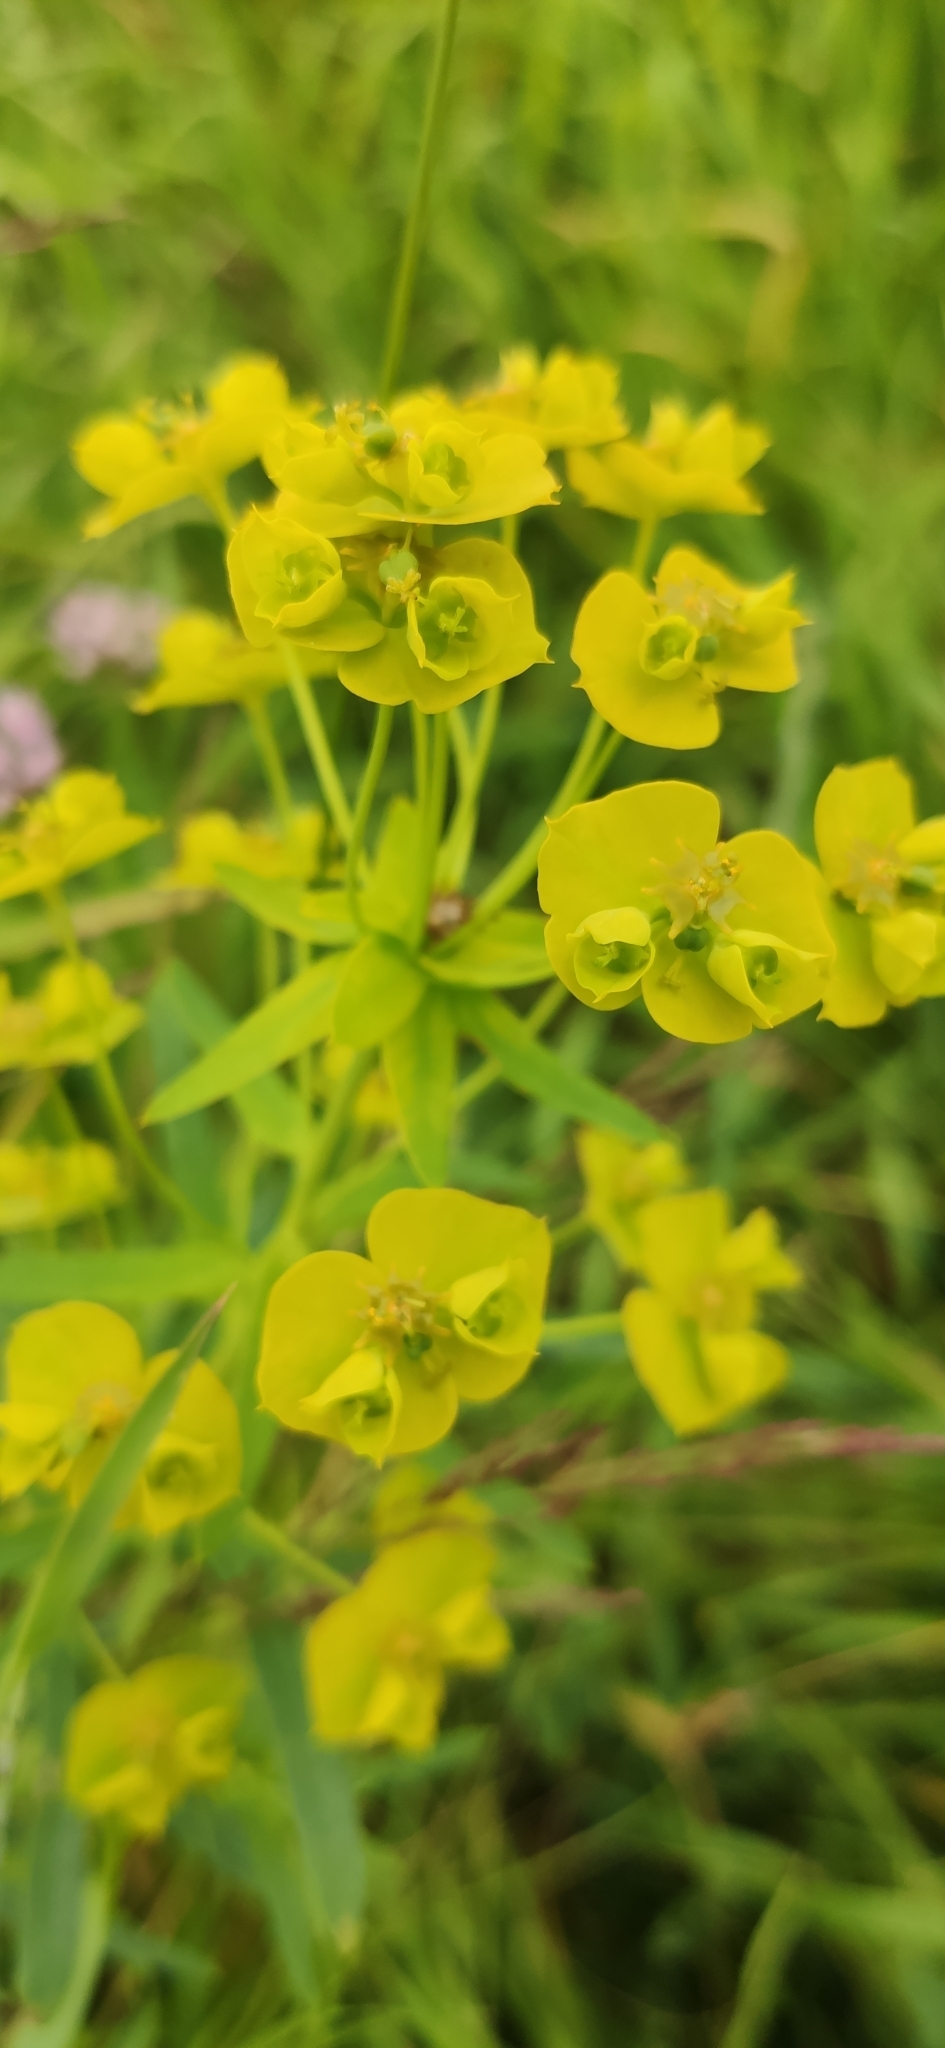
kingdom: Plantae
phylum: Tracheophyta
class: Magnoliopsida
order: Malpighiales
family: Euphorbiaceae
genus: Euphorbia
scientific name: Euphorbia virgata
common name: Leafy spurge
